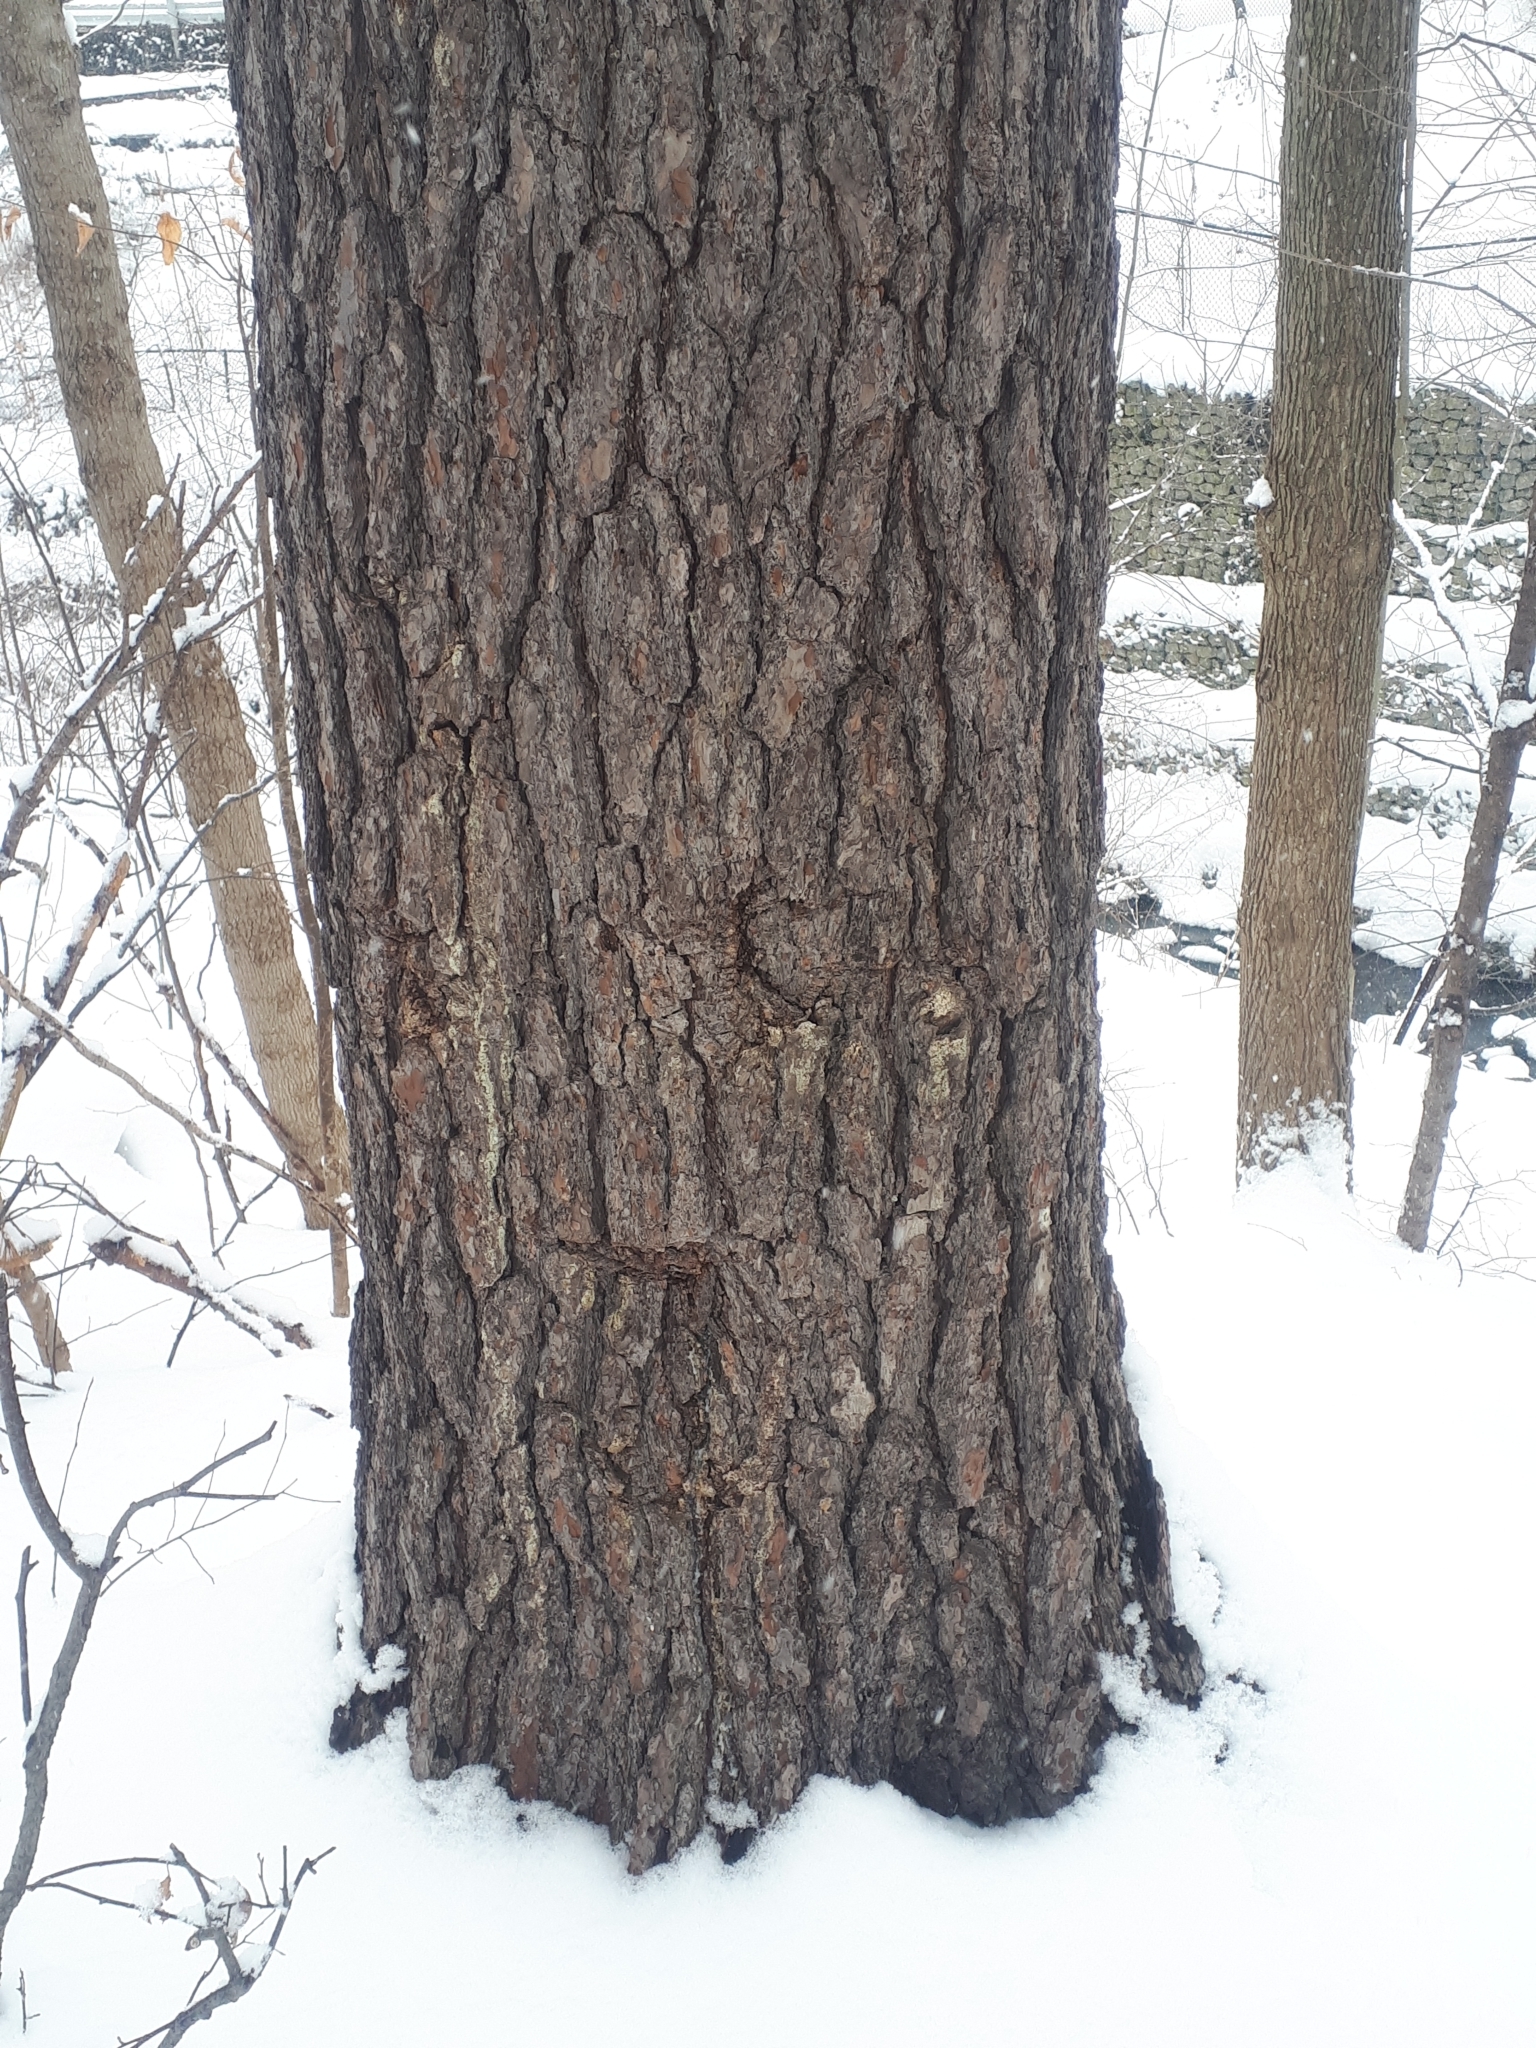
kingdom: Plantae
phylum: Tracheophyta
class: Pinopsida
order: Pinales
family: Pinaceae
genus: Pinus
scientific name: Pinus strobus
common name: Weymouth pine
